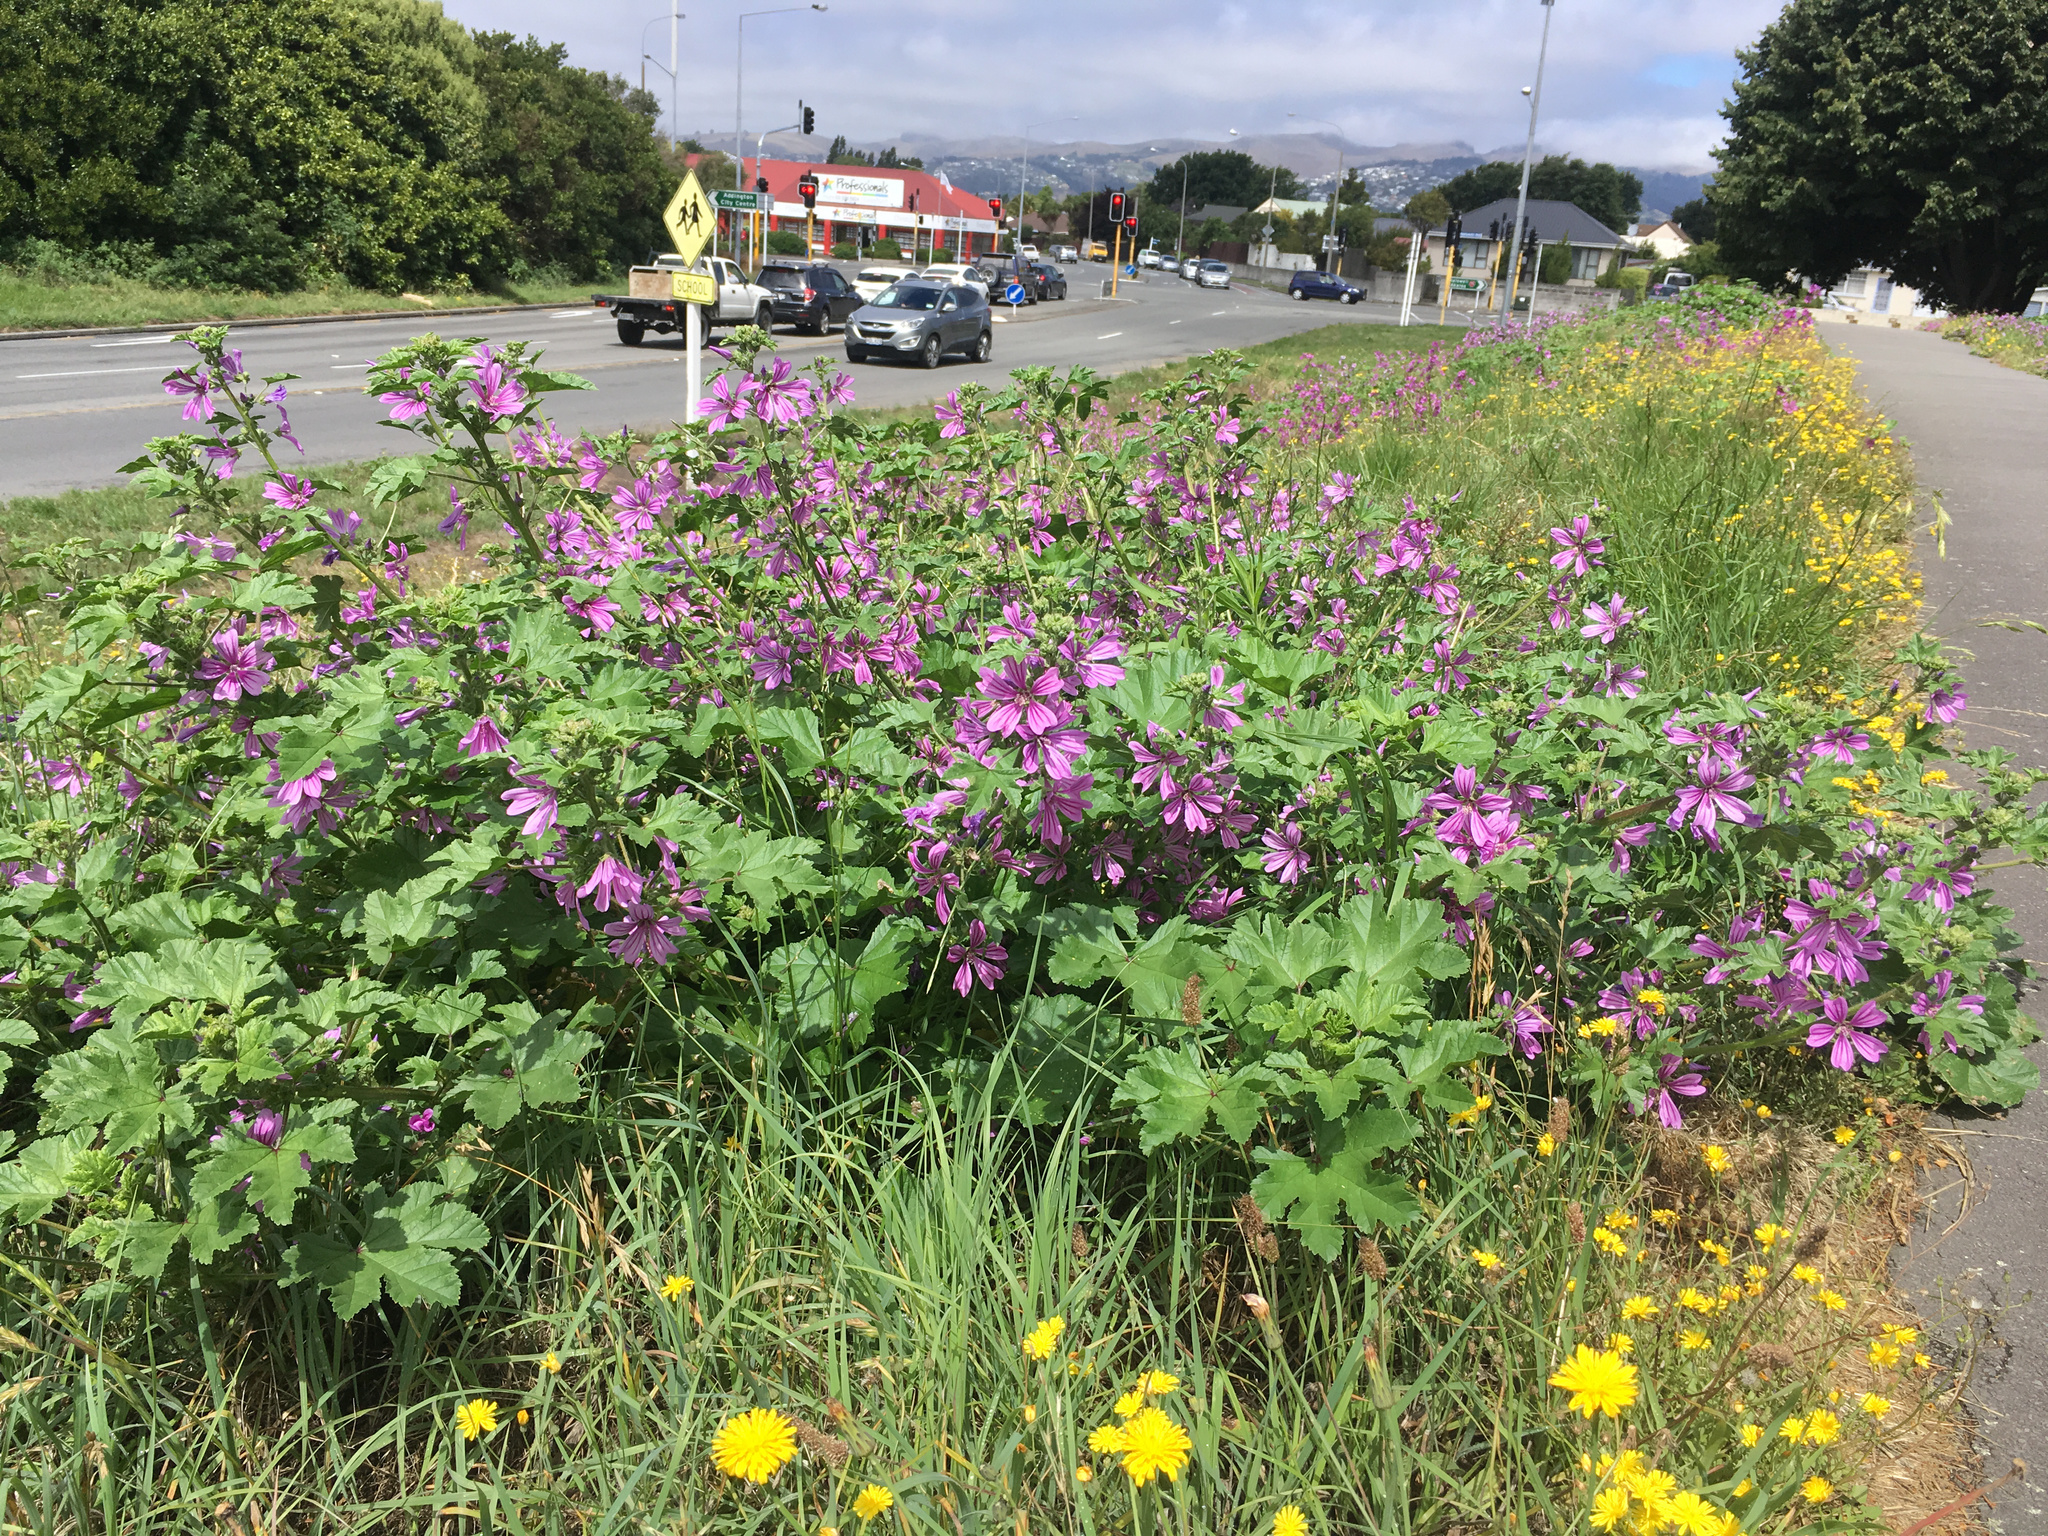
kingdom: Plantae
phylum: Tracheophyta
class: Magnoliopsida
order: Malvales
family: Malvaceae
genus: Malva
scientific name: Malva sylvestris
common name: Common mallow
